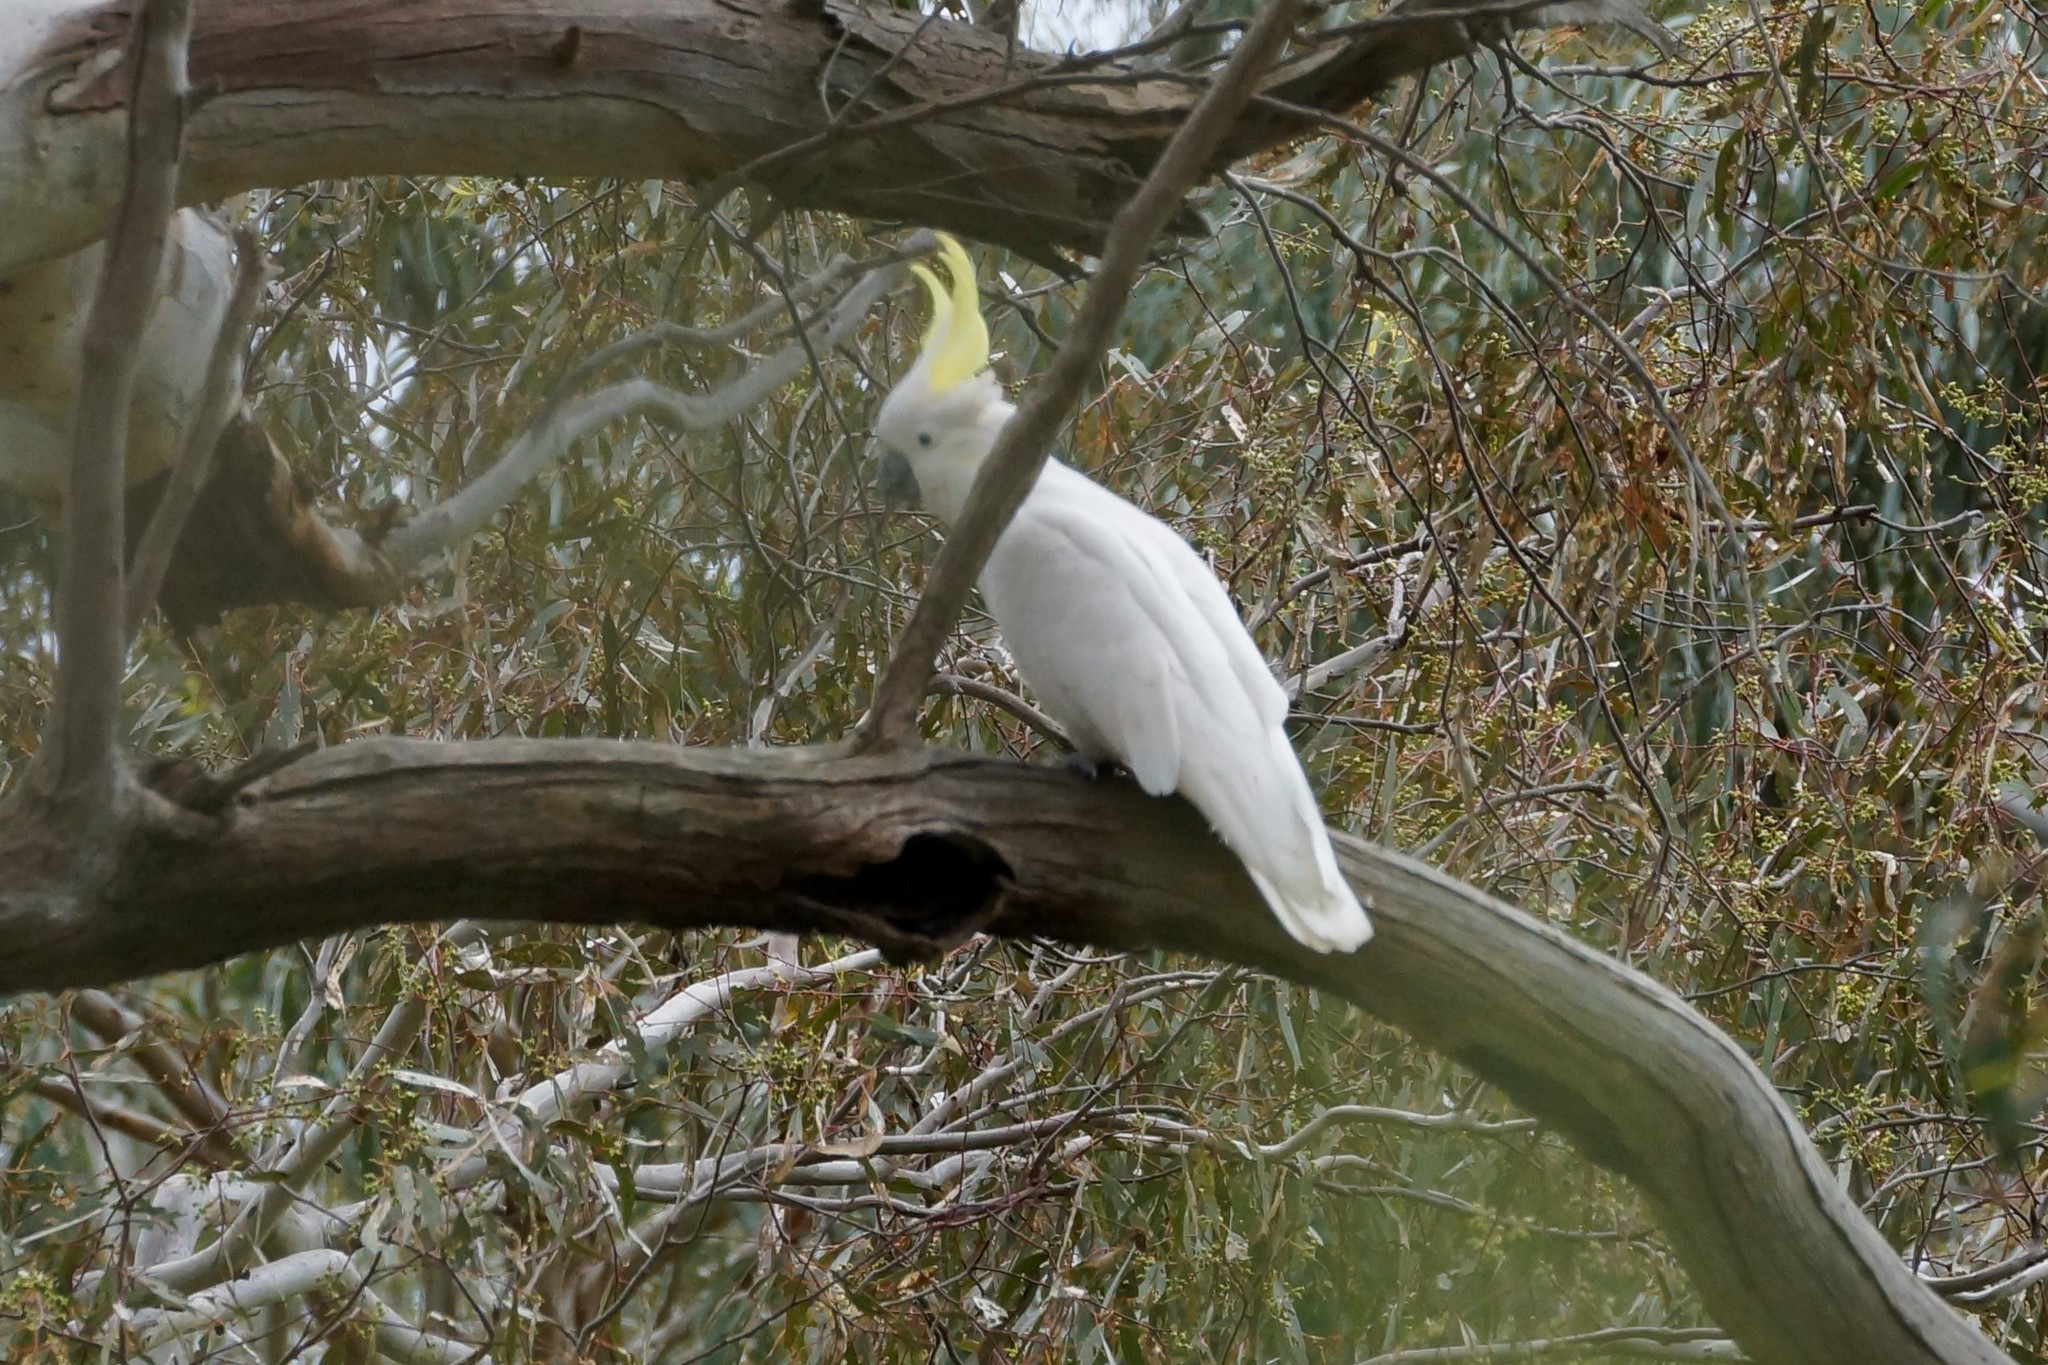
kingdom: Animalia
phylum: Chordata
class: Aves
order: Psittaciformes
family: Psittacidae
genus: Cacatua
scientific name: Cacatua galerita
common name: Sulphur-crested cockatoo
